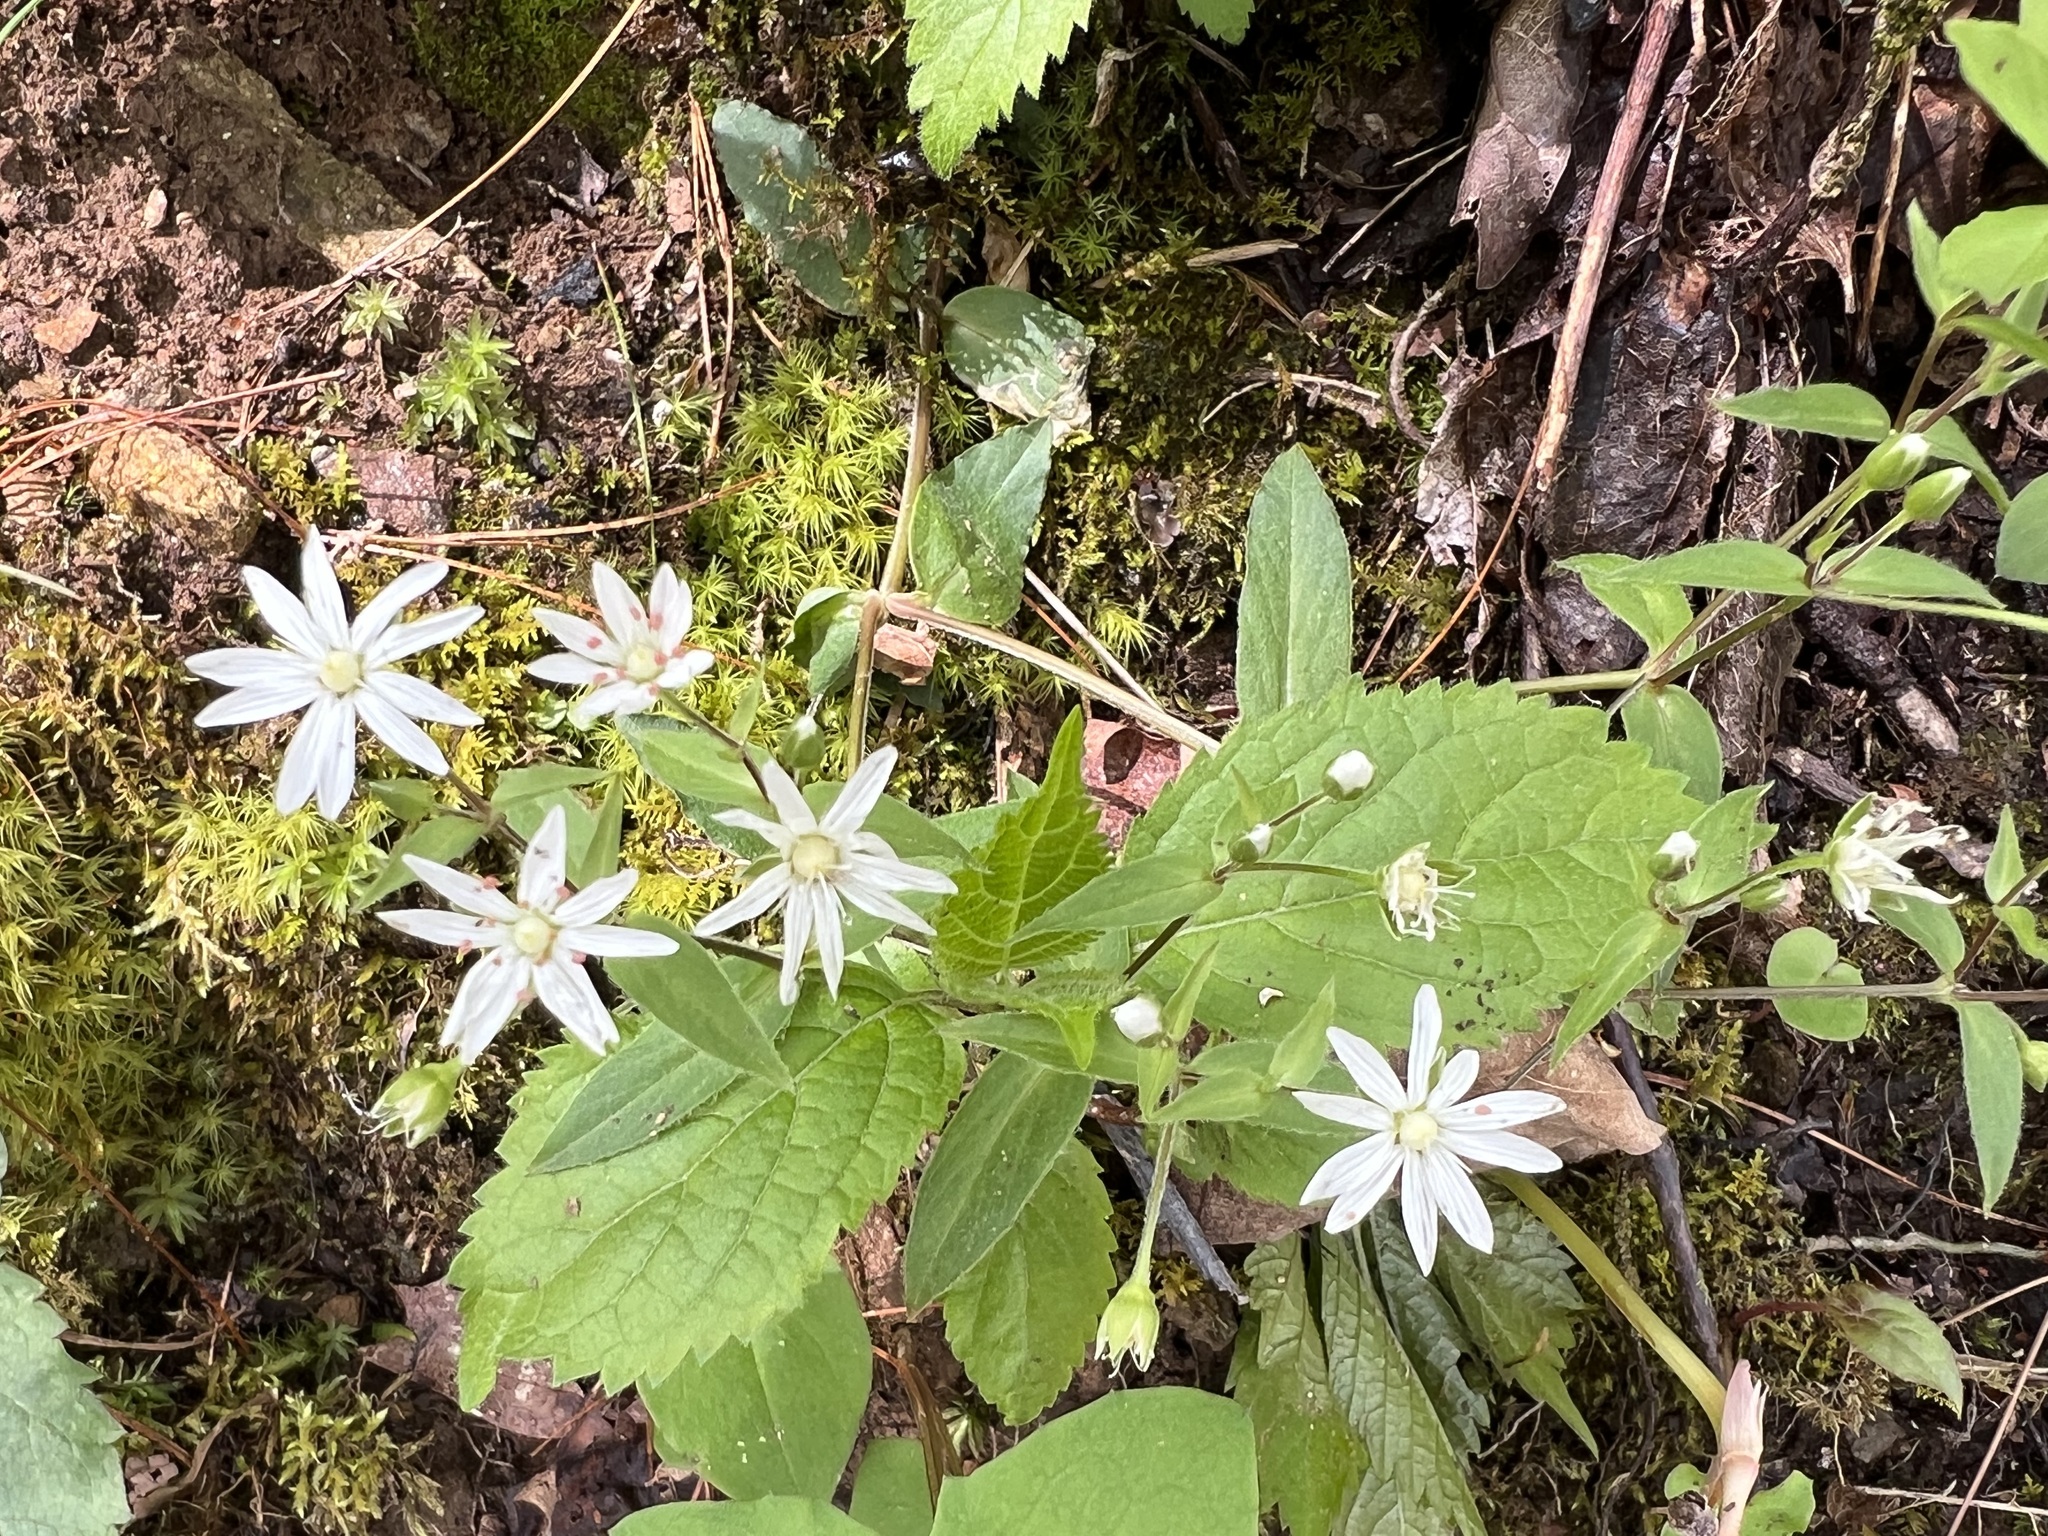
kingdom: Plantae
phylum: Tracheophyta
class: Magnoliopsida
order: Caryophyllales
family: Caryophyllaceae
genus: Stellaria
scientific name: Stellaria pubera
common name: Star chickweed
